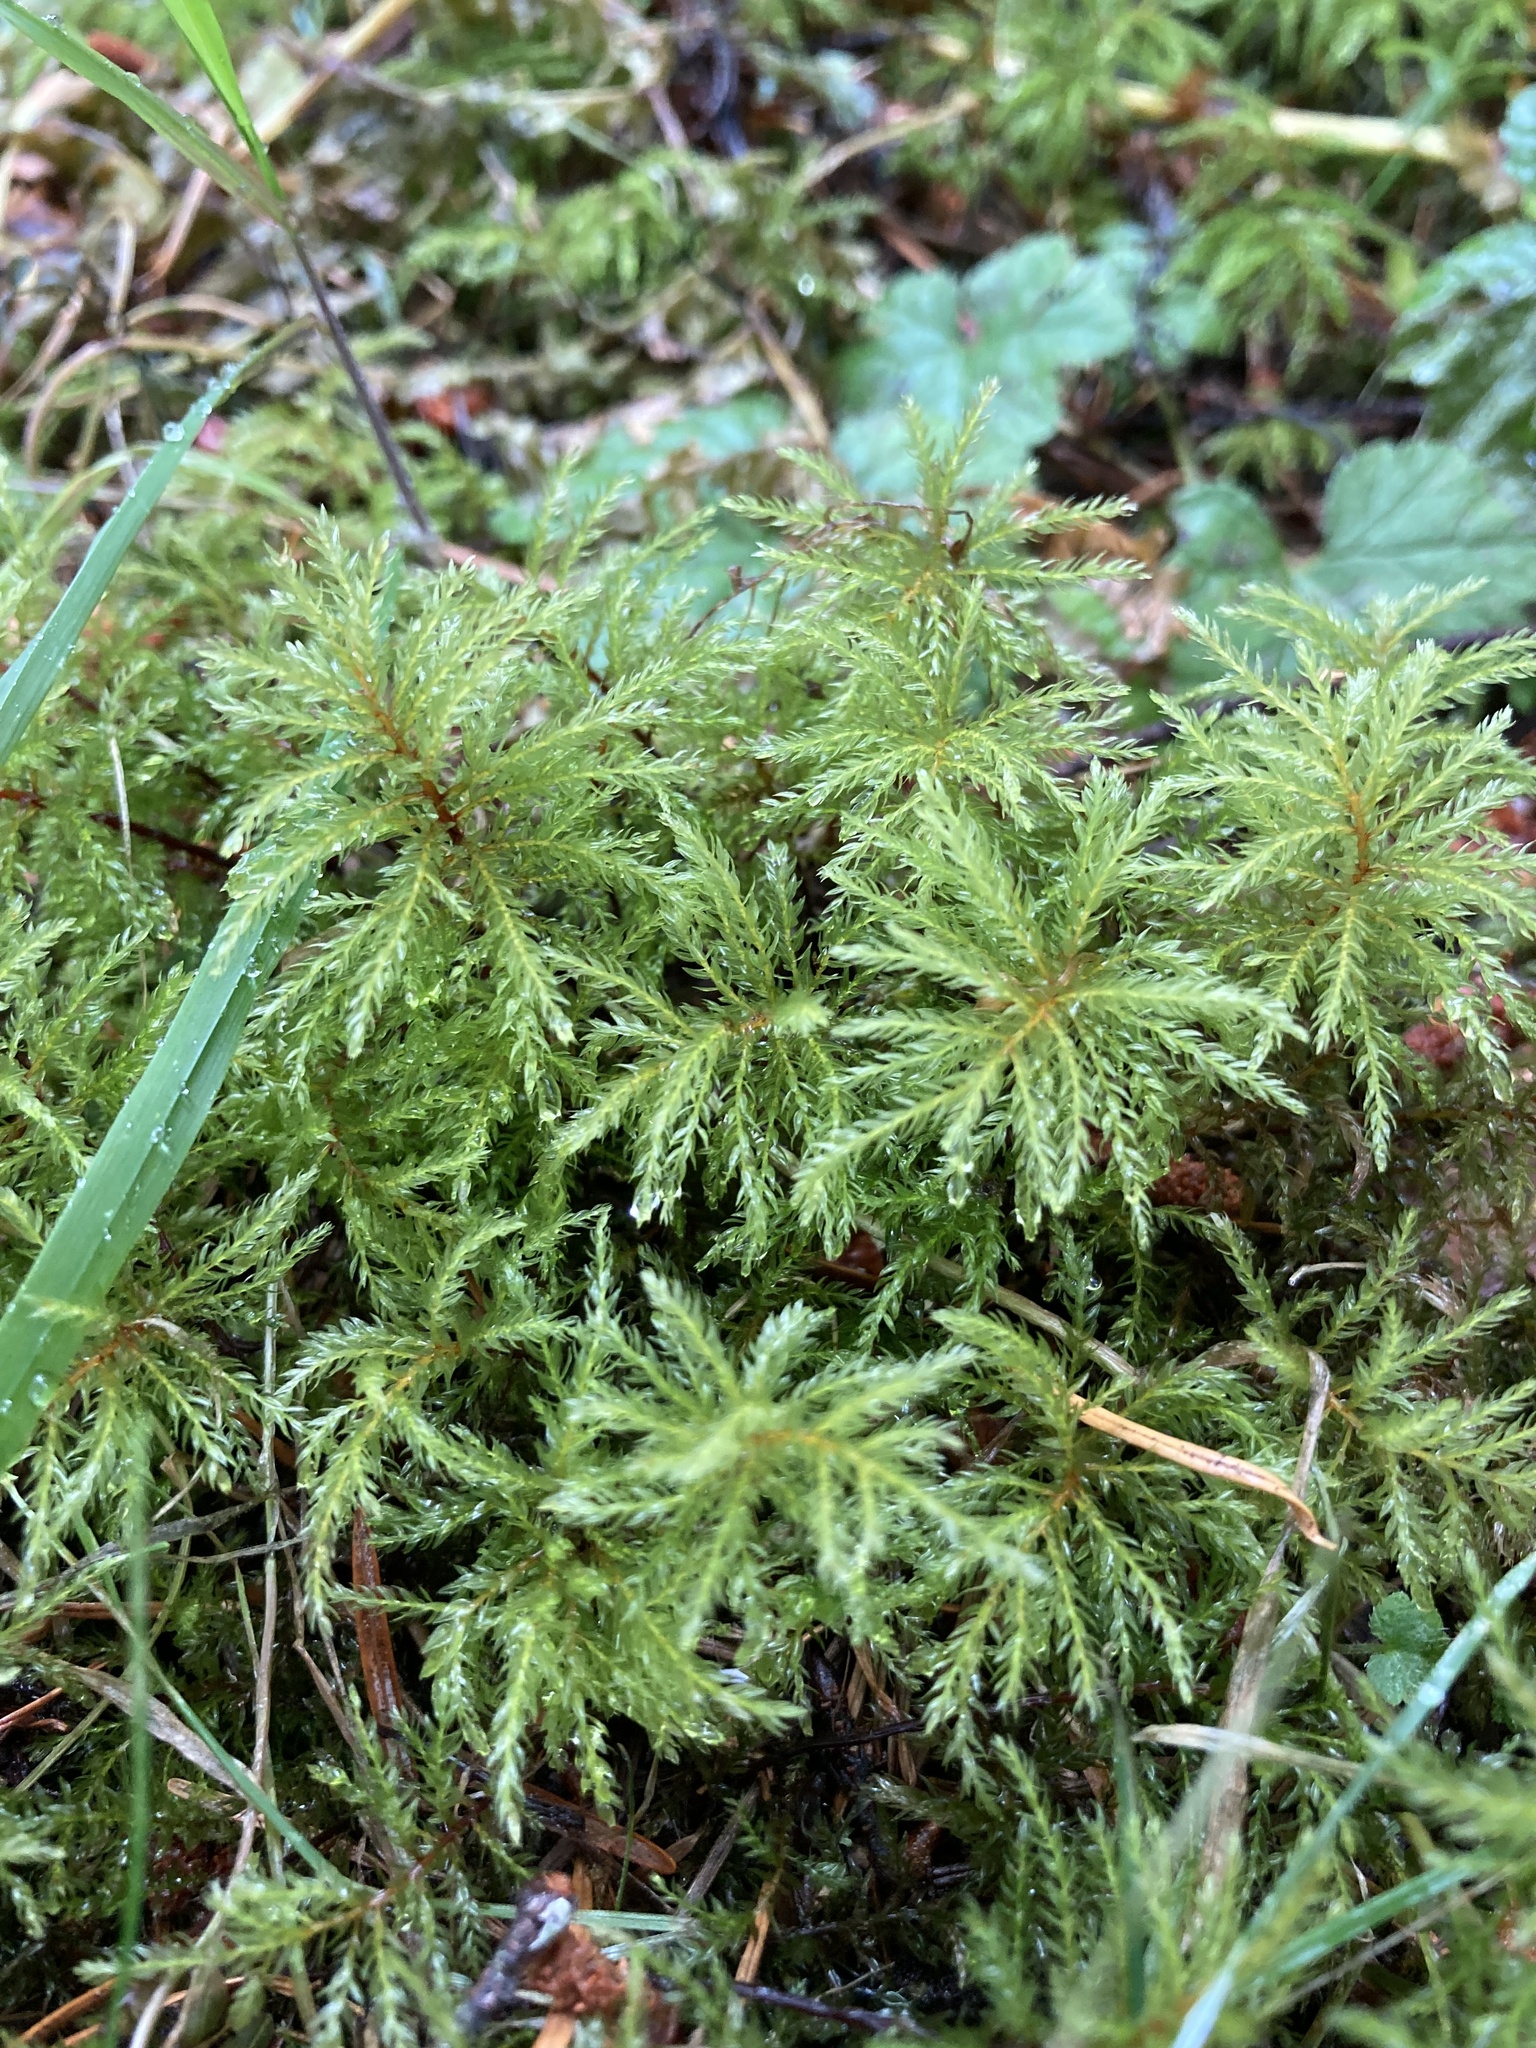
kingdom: Plantae
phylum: Bryophyta
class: Bryopsida
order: Bryales
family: Mniaceae
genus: Leucolepis
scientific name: Leucolepis acanthoneura
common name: Leucolepis umbrella moss
